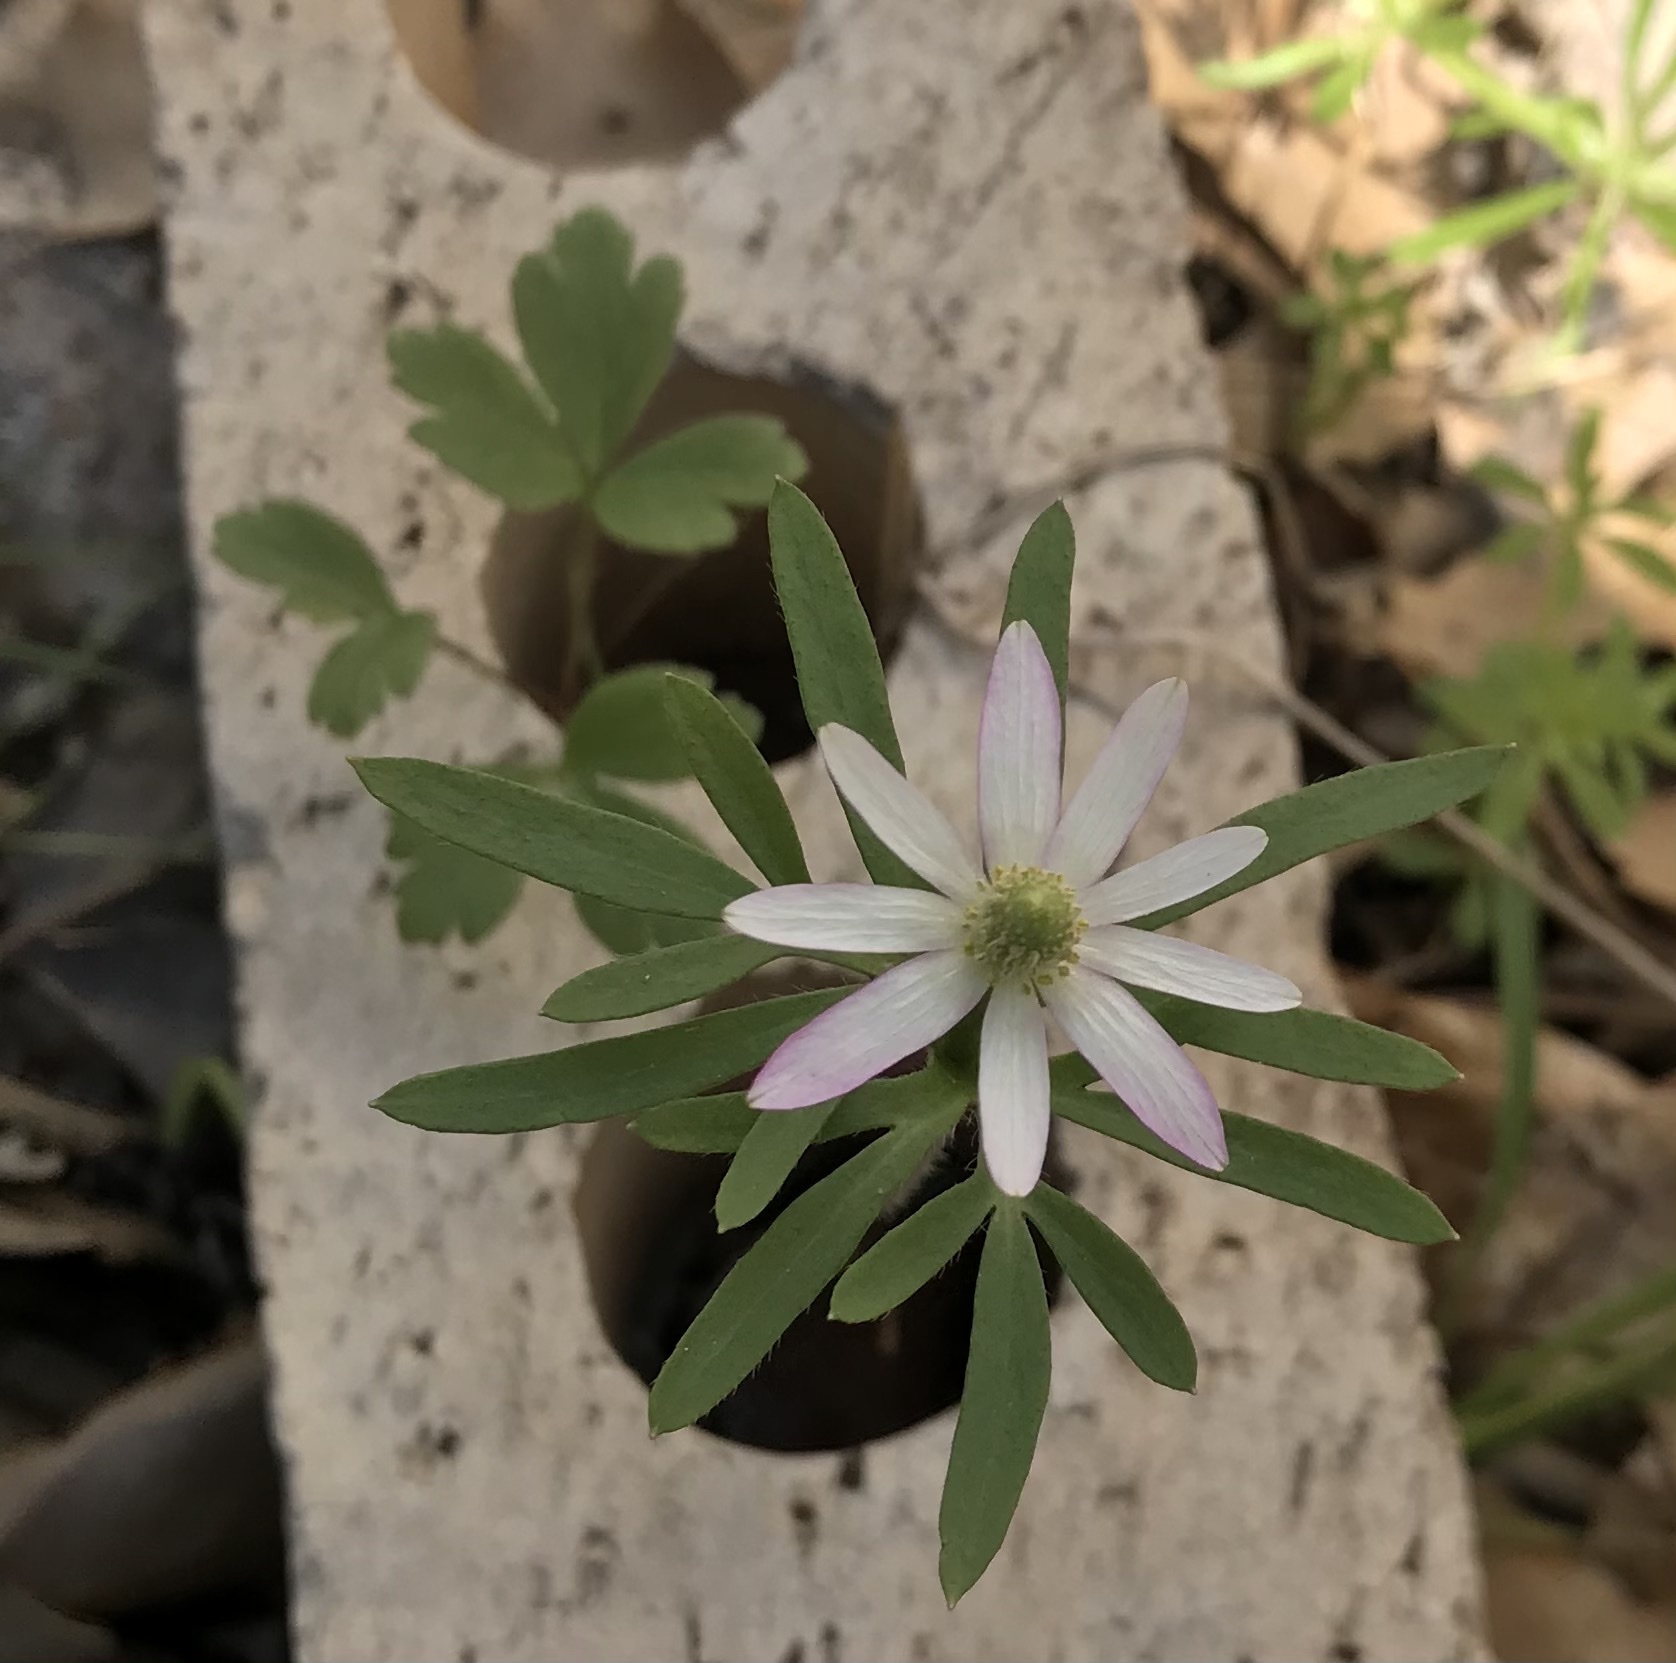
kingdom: Plantae
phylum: Tracheophyta
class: Magnoliopsida
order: Ranunculales
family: Ranunculaceae
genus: Anemone
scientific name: Anemone berlandieri
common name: Ten-petal anemone
